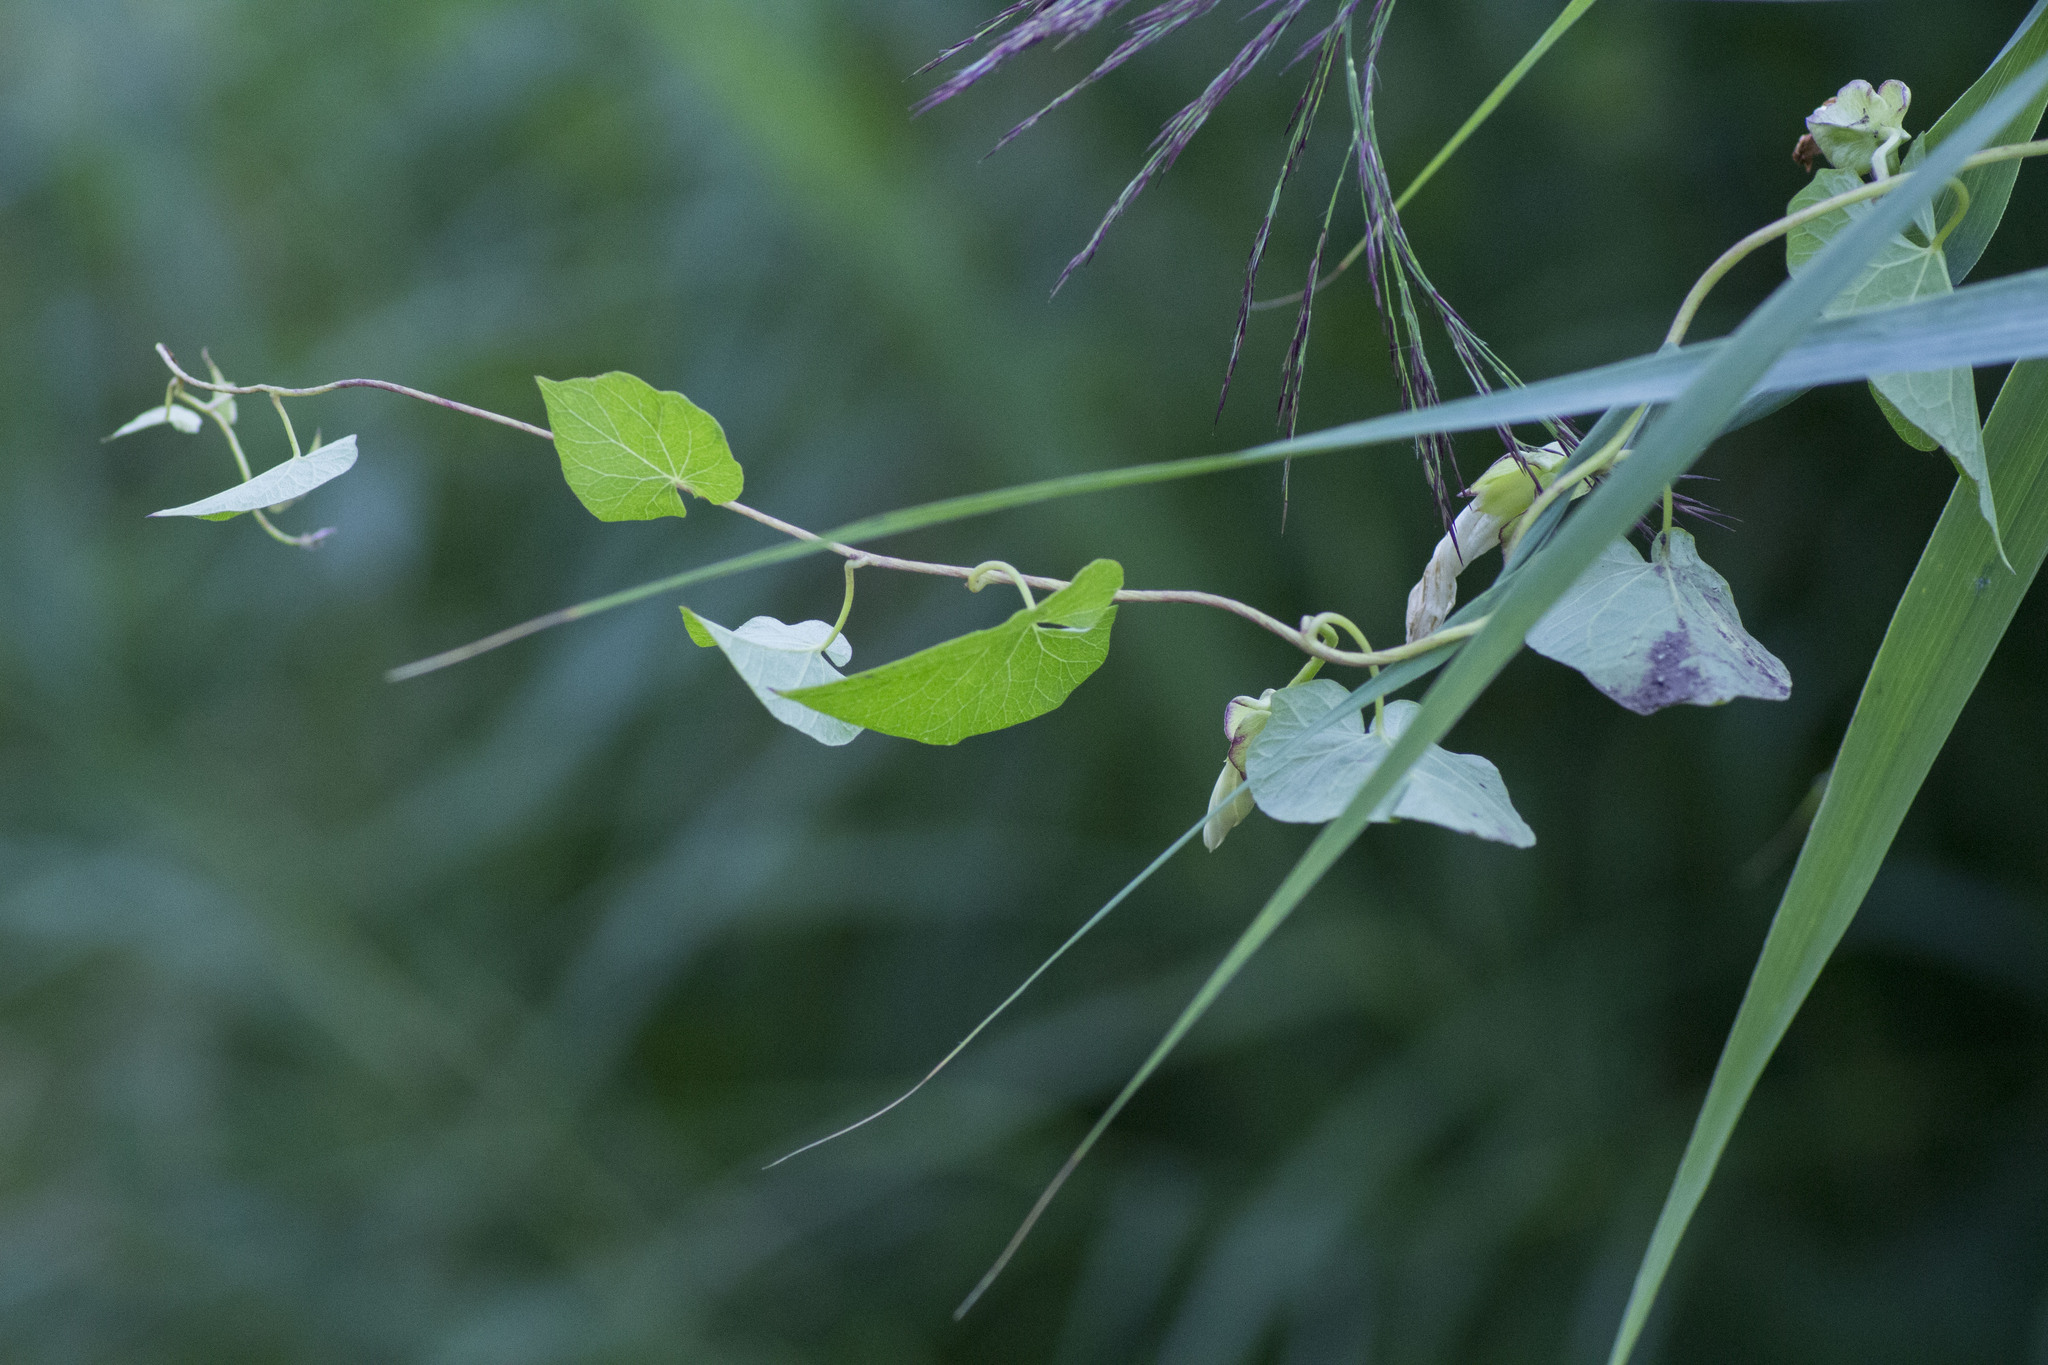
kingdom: Plantae
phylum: Tracheophyta
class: Magnoliopsida
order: Solanales
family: Convolvulaceae
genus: Calystegia
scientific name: Calystegia sepium
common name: Hedge bindweed
